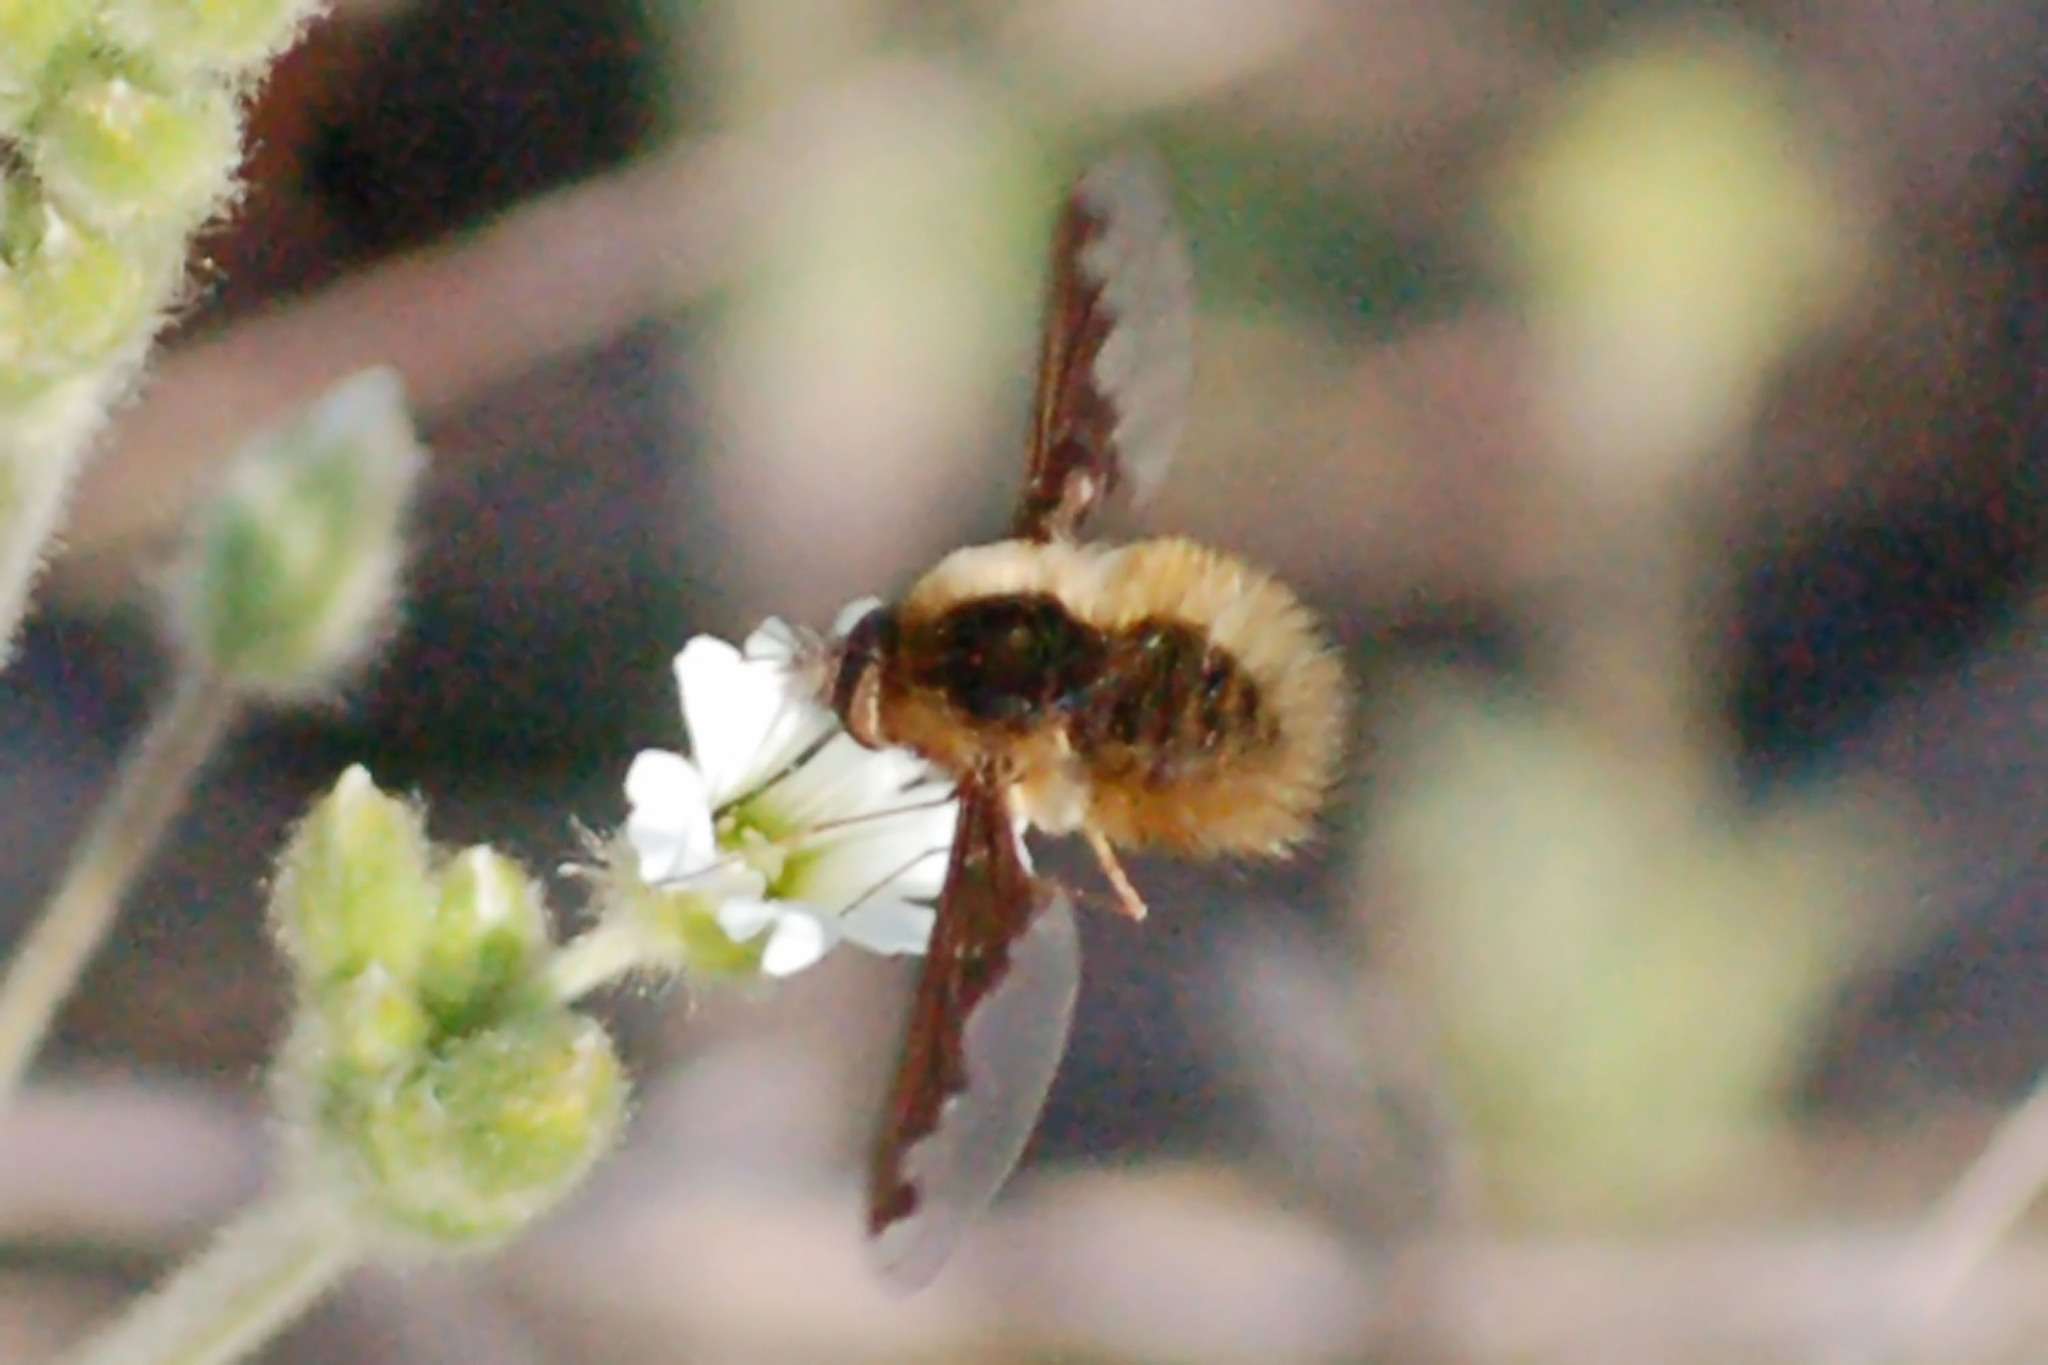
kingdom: Animalia
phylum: Arthropoda
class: Insecta
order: Diptera
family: Bombyliidae
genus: Bombylius
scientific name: Bombylius major
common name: Bee fly
